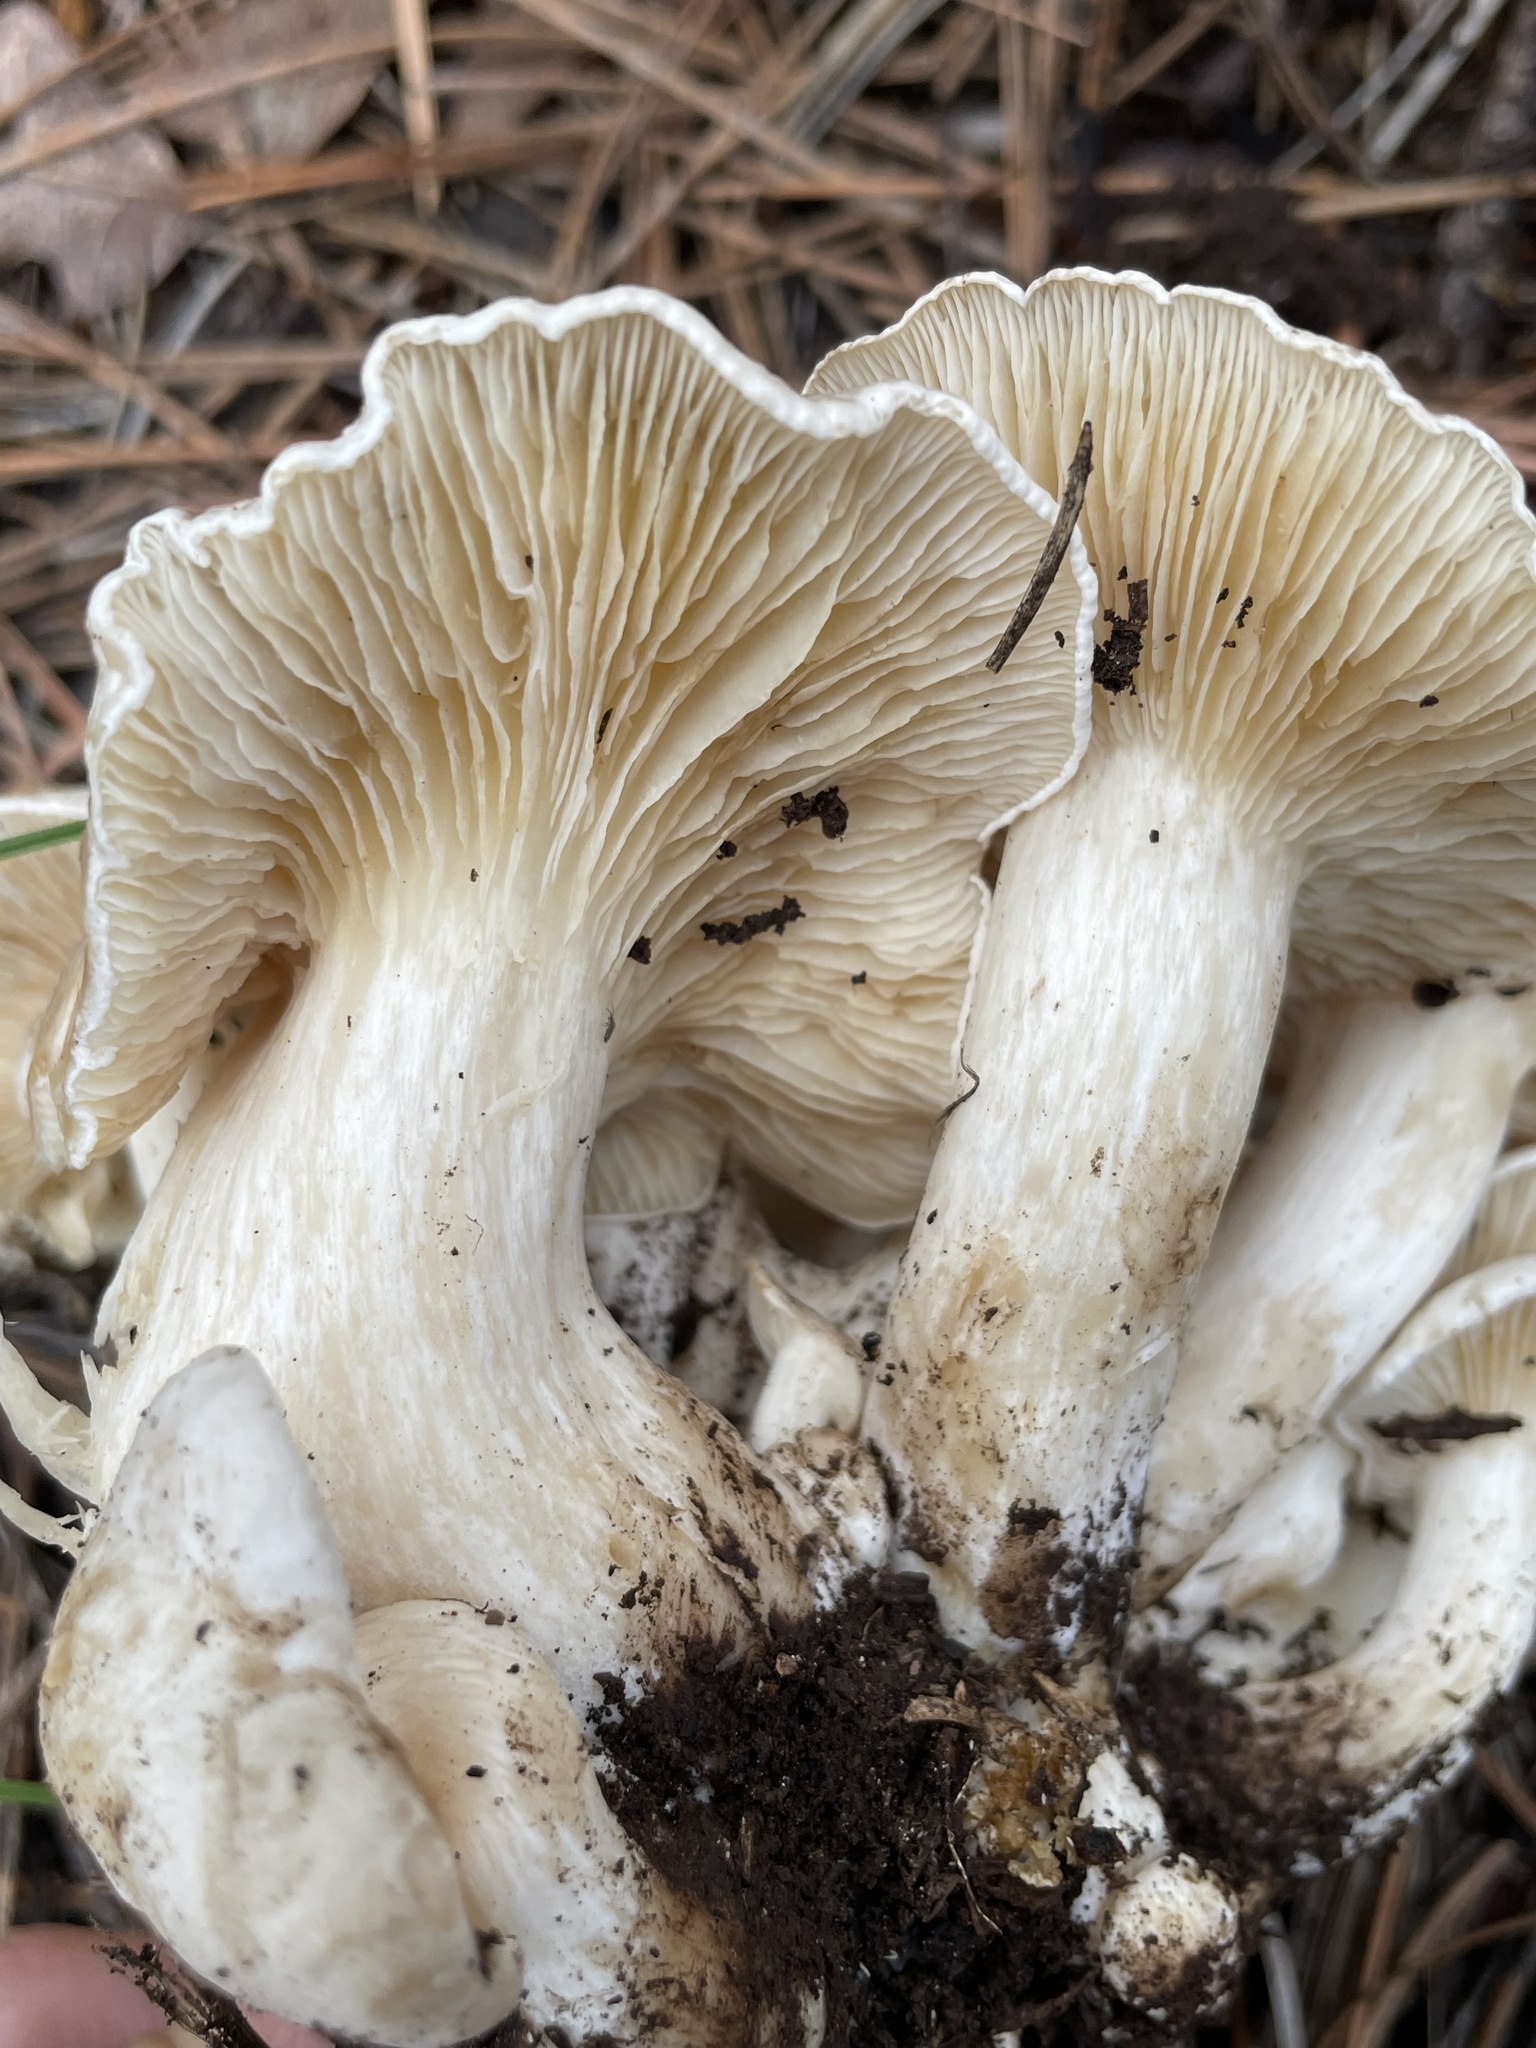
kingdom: Fungi
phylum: Basidiomycota
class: Agaricomycetes
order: Agaricales
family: Lyophyllaceae
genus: Lyophyllum
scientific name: Lyophyllum shimeji
